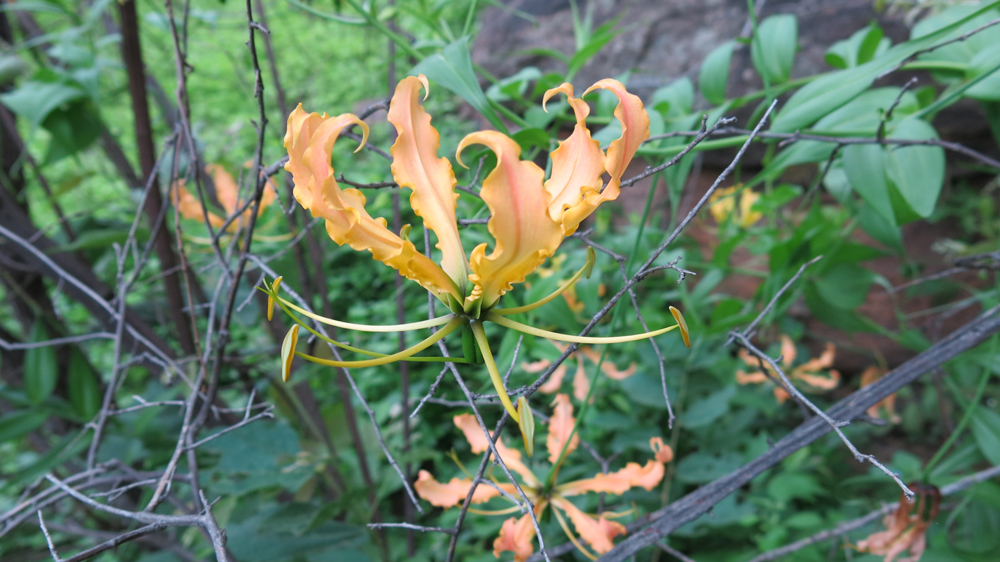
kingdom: Plantae
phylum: Tracheophyta
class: Liliopsida
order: Liliales
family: Colchicaceae
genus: Gloriosa
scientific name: Gloriosa superba
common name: Flame lily
